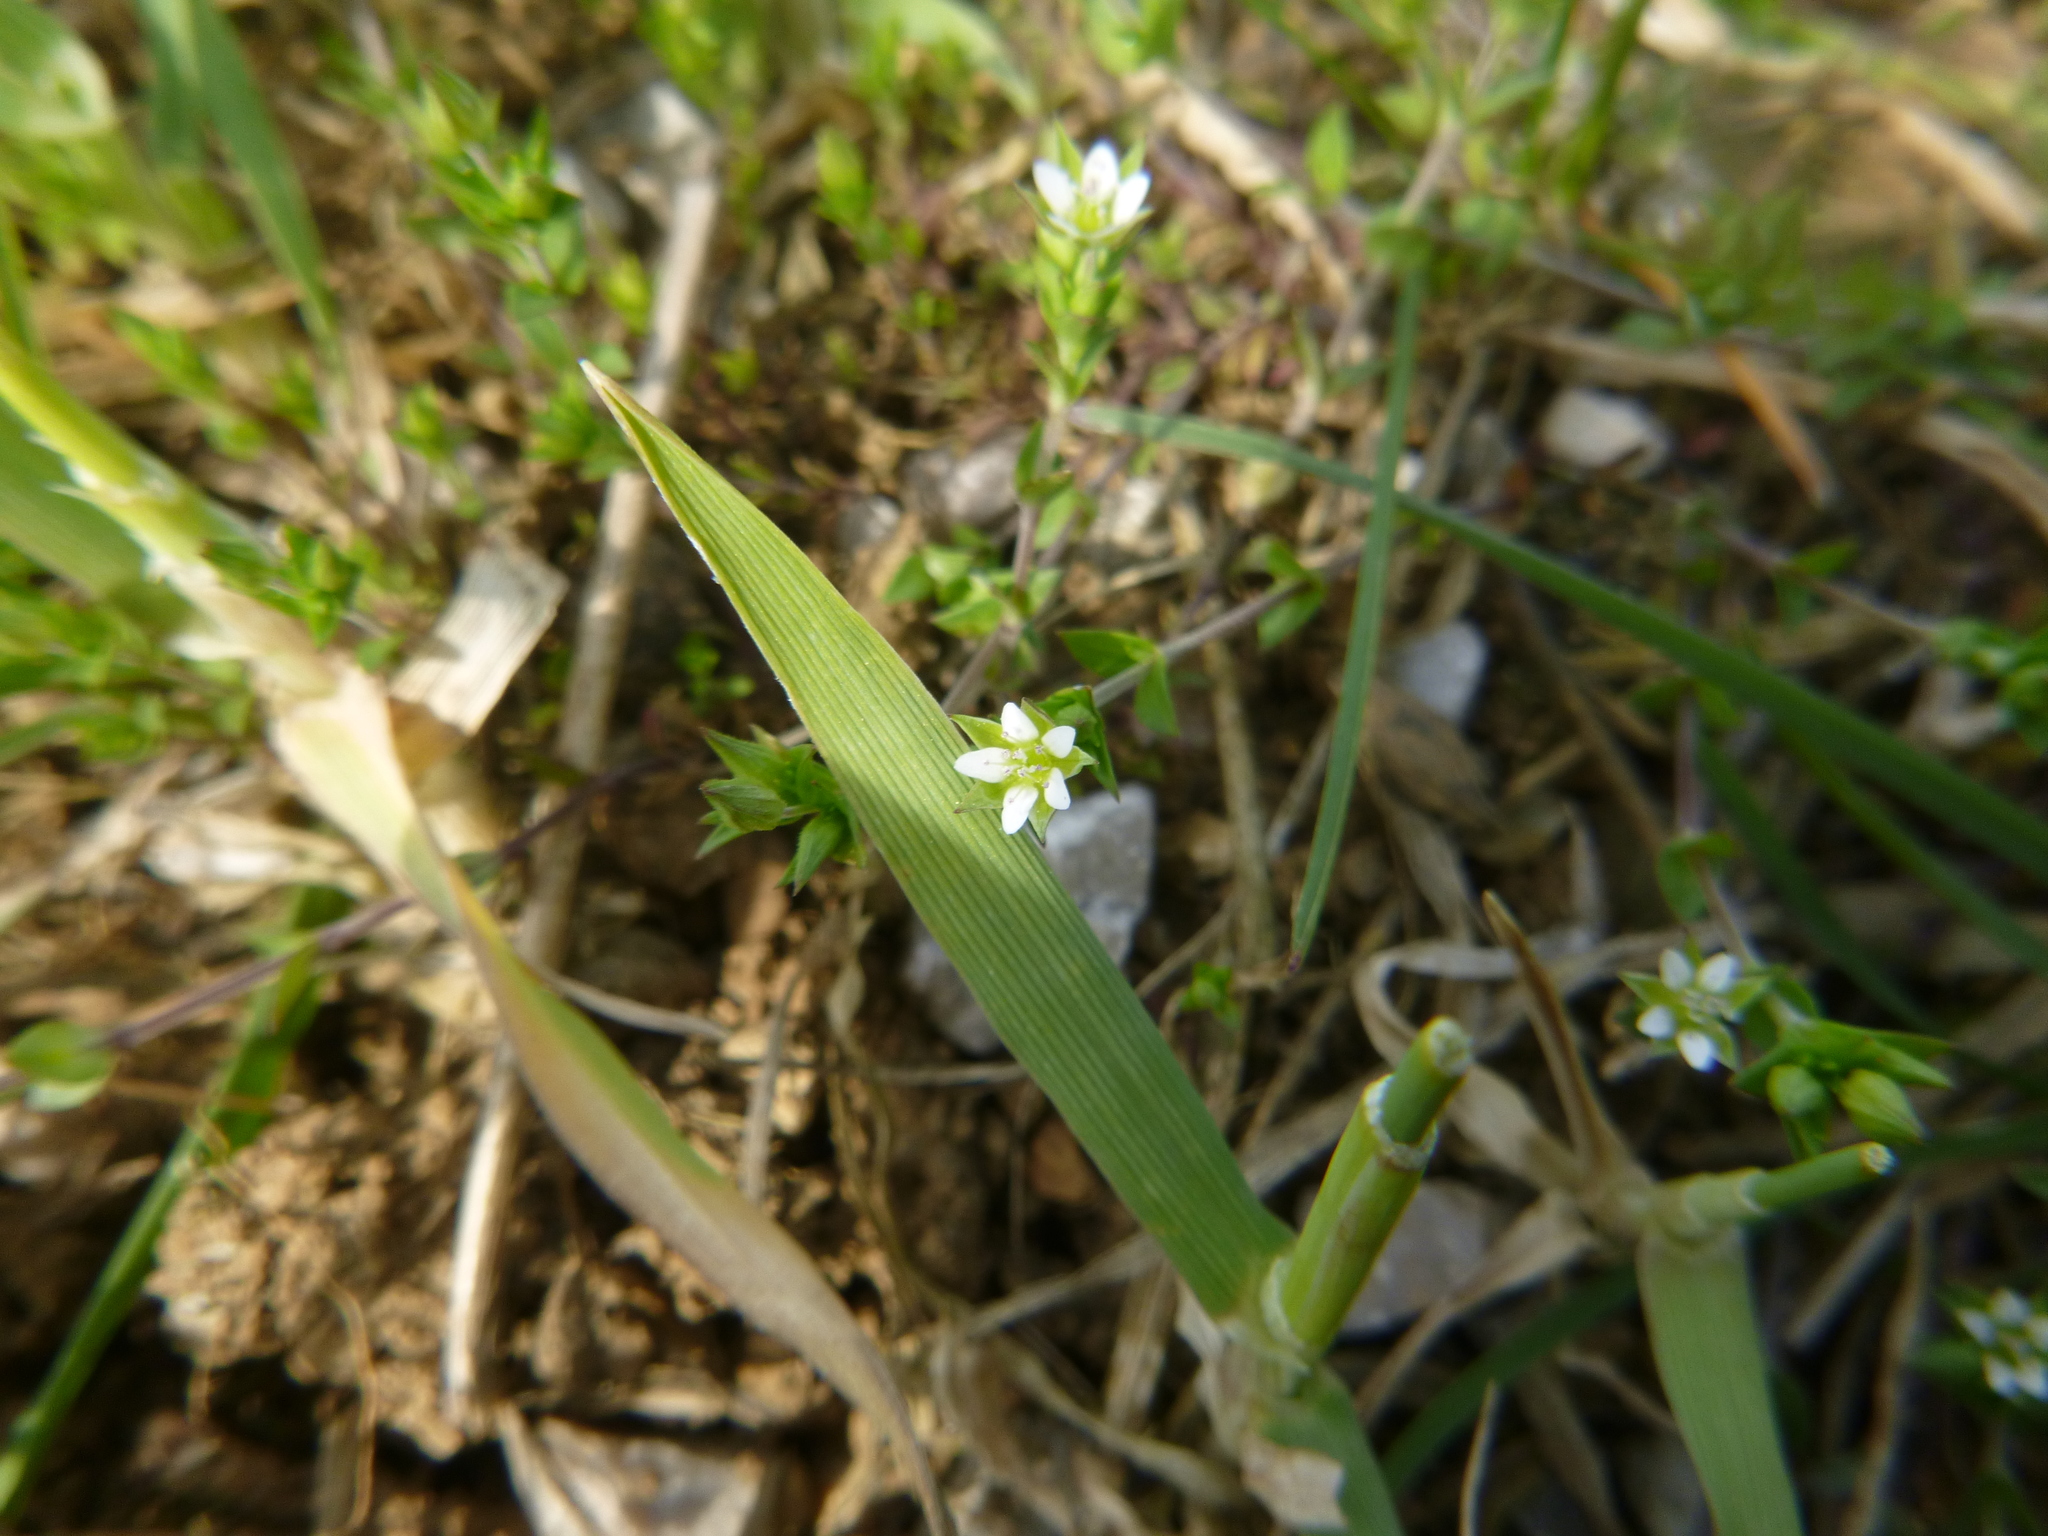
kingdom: Plantae
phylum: Tracheophyta
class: Magnoliopsida
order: Caryophyllales
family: Caryophyllaceae
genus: Arenaria
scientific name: Arenaria serpyllifolia
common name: Thyme-leaved sandwort
